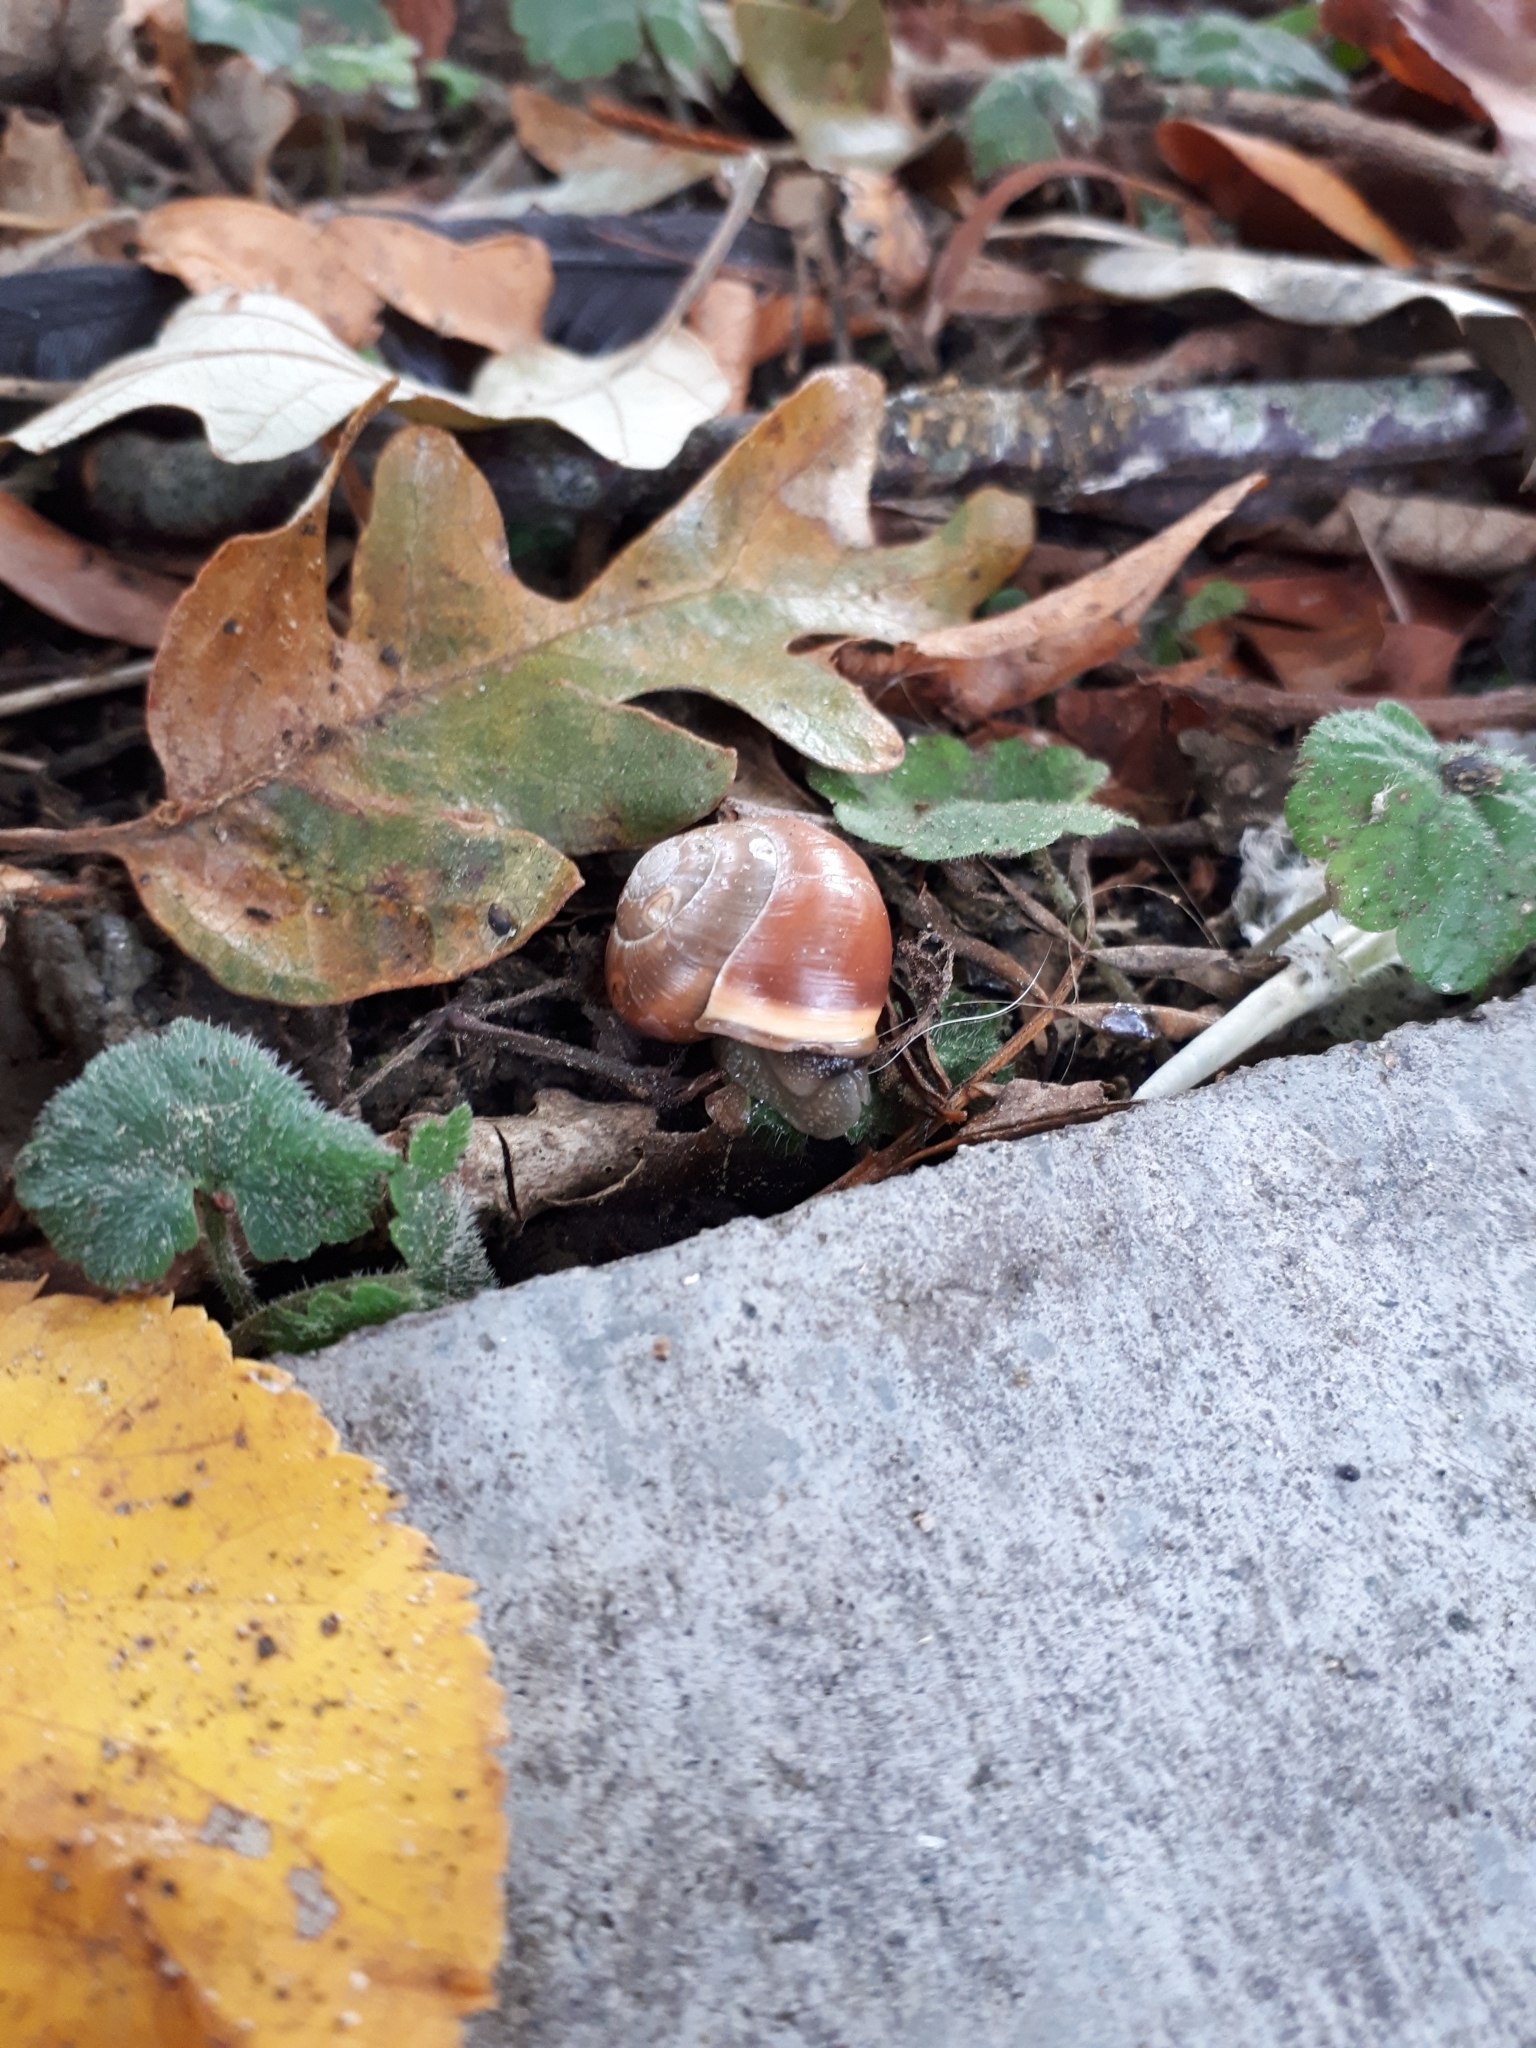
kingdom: Animalia
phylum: Mollusca
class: Gastropoda
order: Stylommatophora
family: Helicidae
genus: Cepaea
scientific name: Cepaea hortensis
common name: White-lip gardensnail
